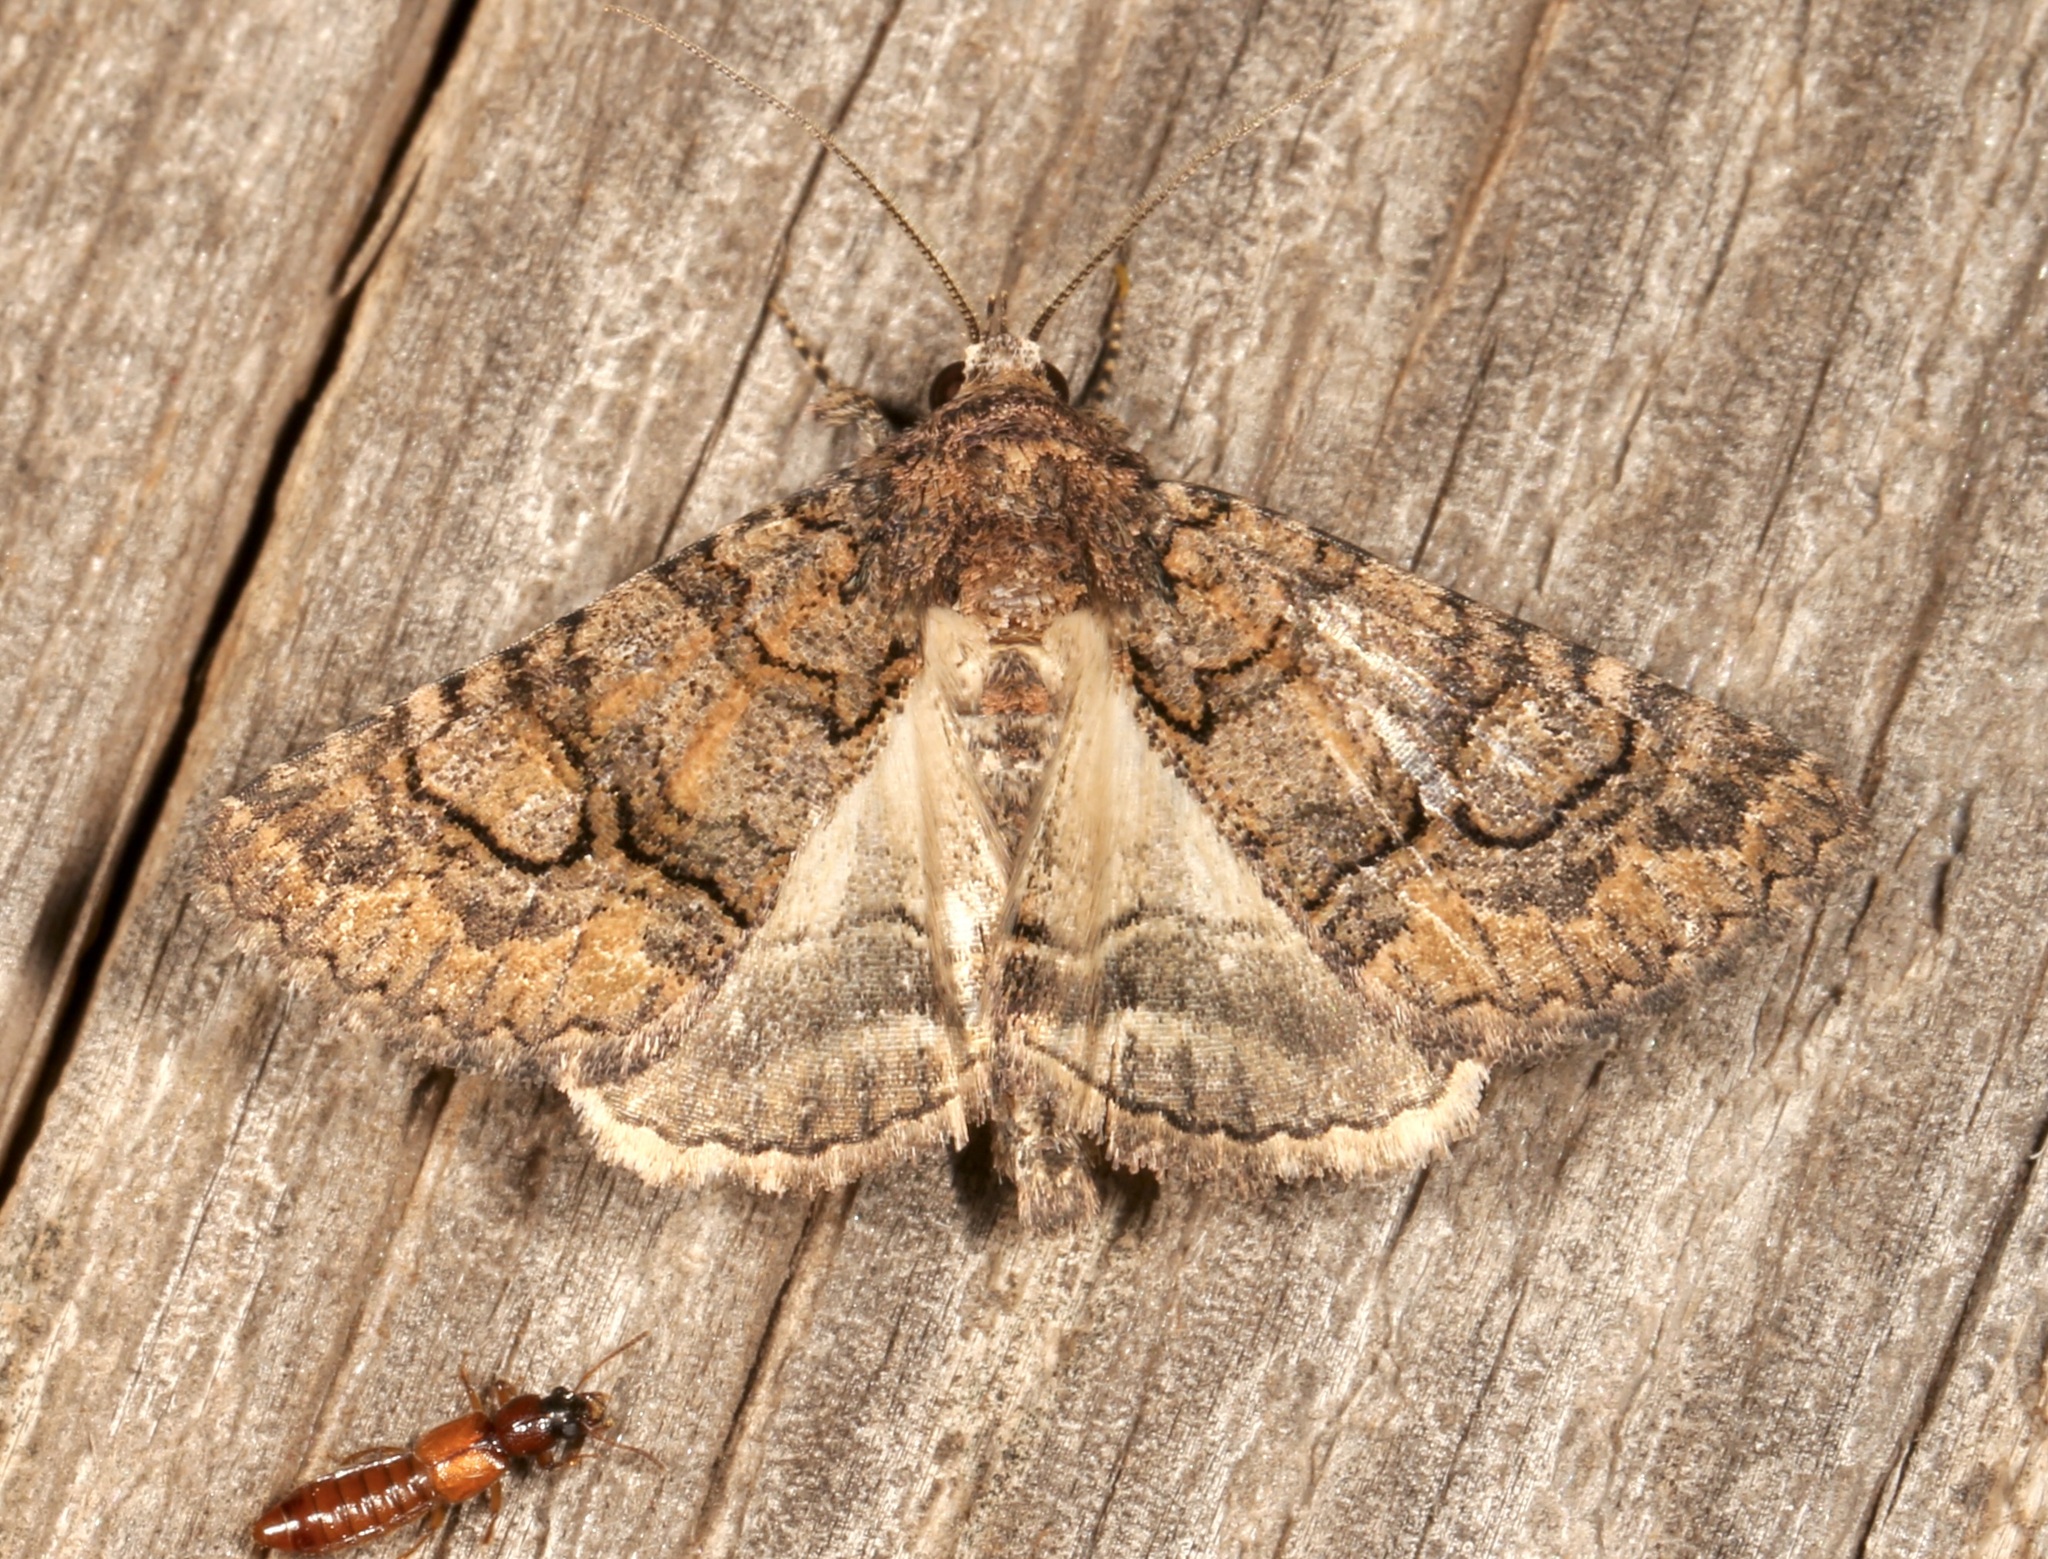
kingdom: Animalia
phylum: Arthropoda
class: Insecta
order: Lepidoptera
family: Erebidae
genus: Elousa
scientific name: Elousa mima
